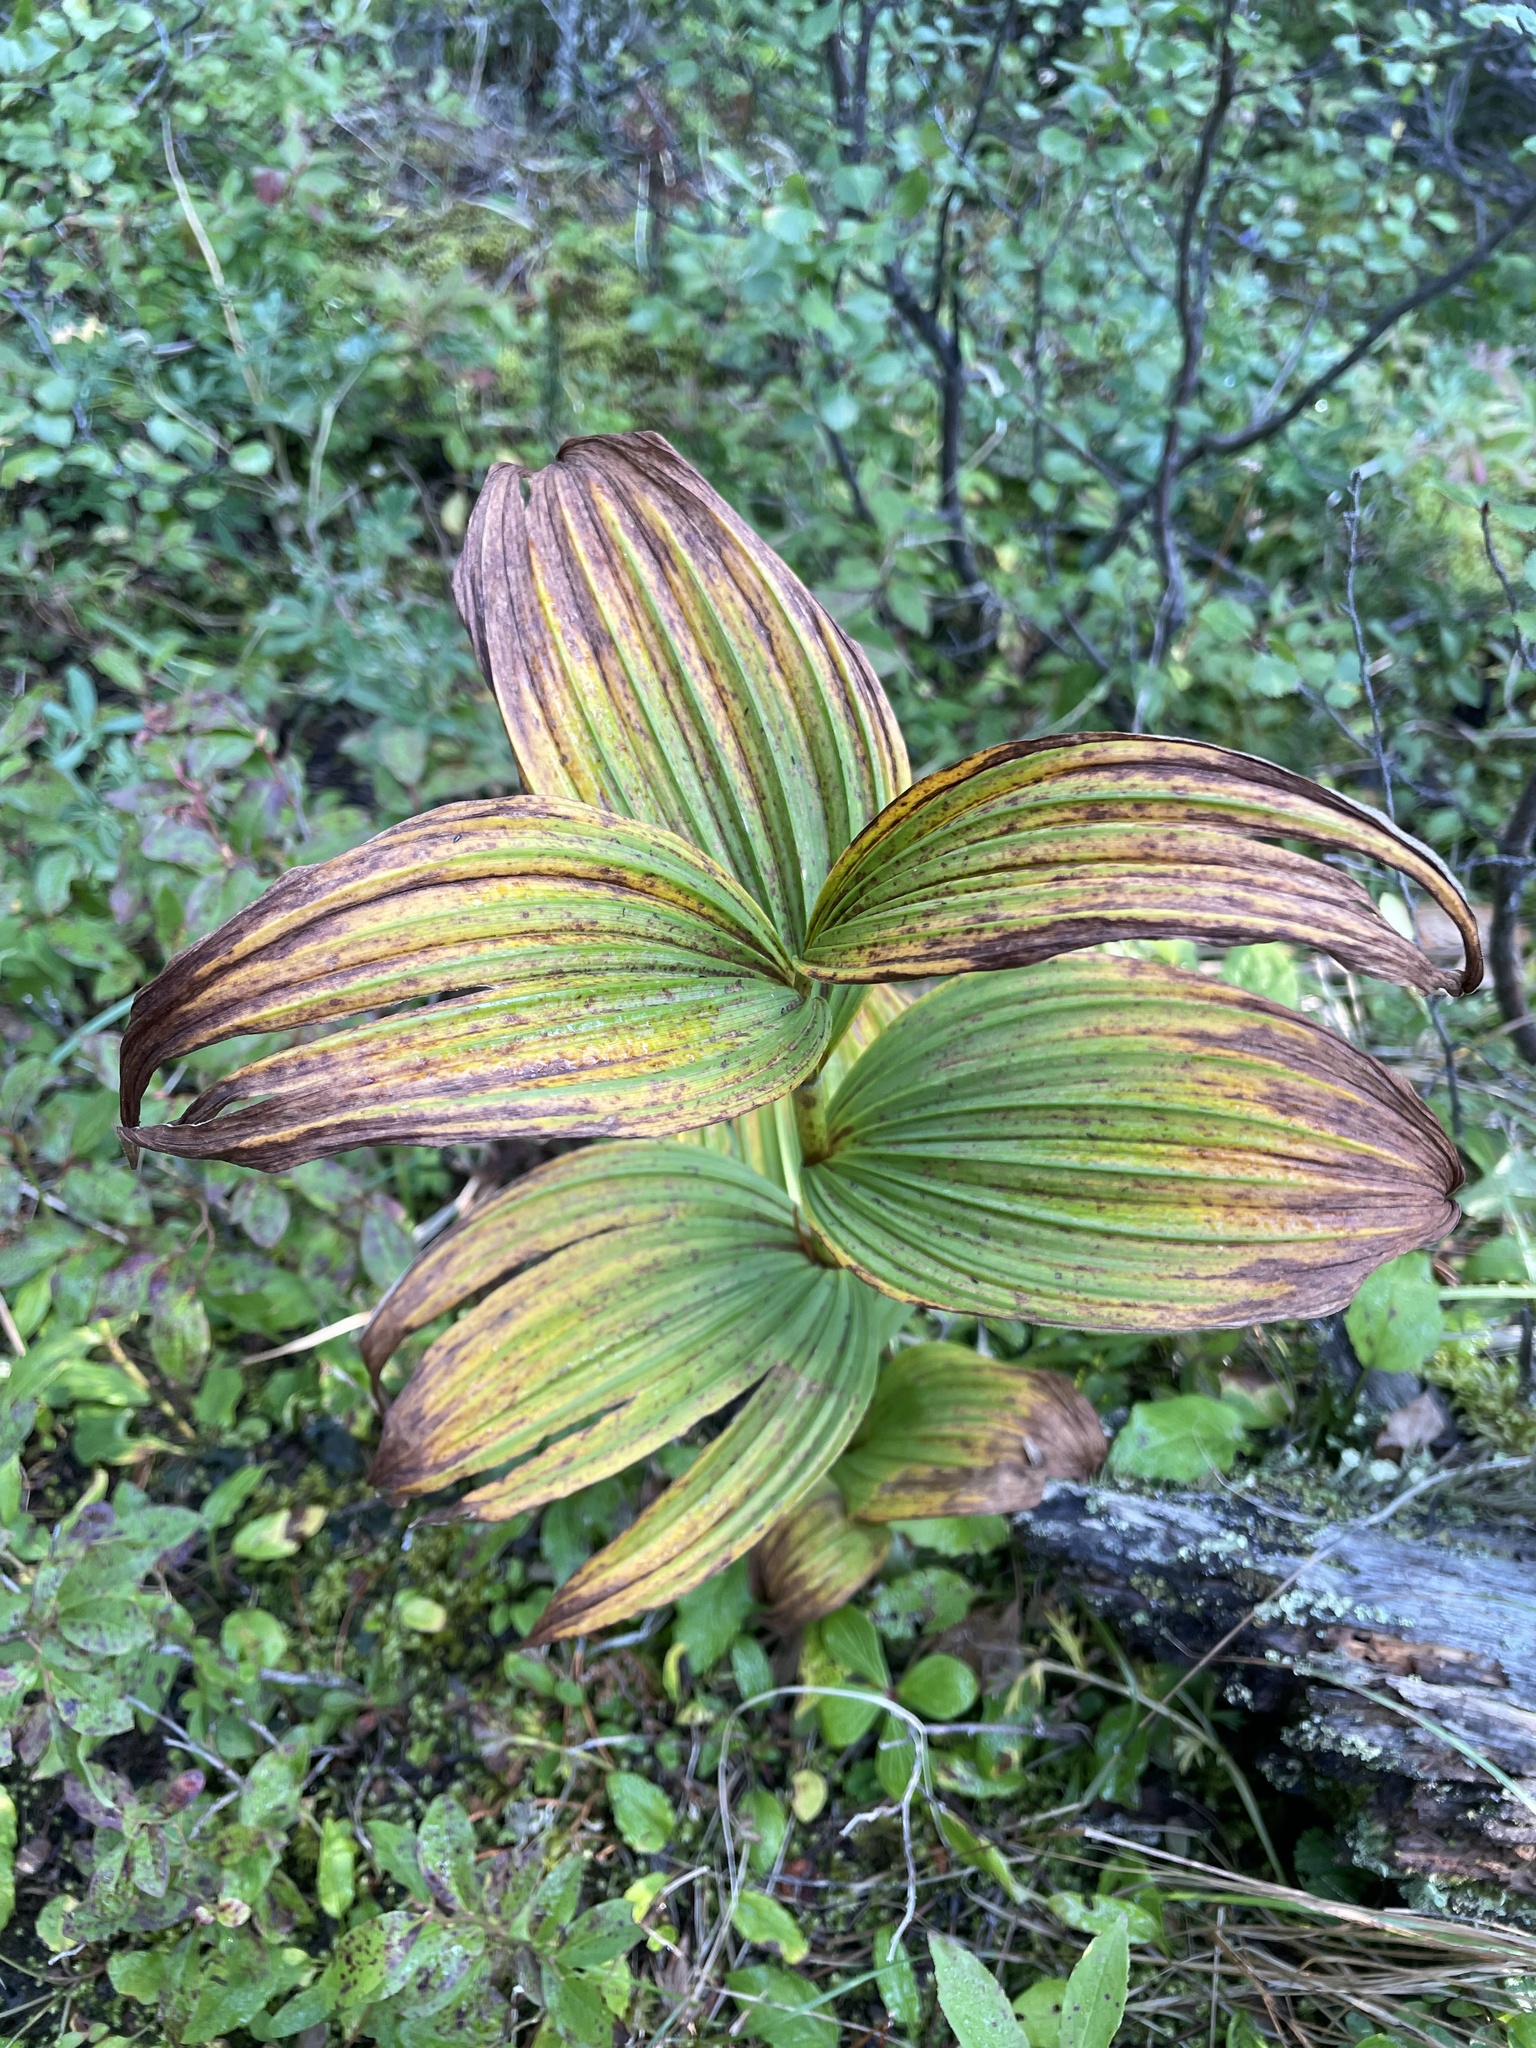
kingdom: Plantae
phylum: Tracheophyta
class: Liliopsida
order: Liliales
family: Melanthiaceae
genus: Veratrum
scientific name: Veratrum viride
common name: American false hellebore
